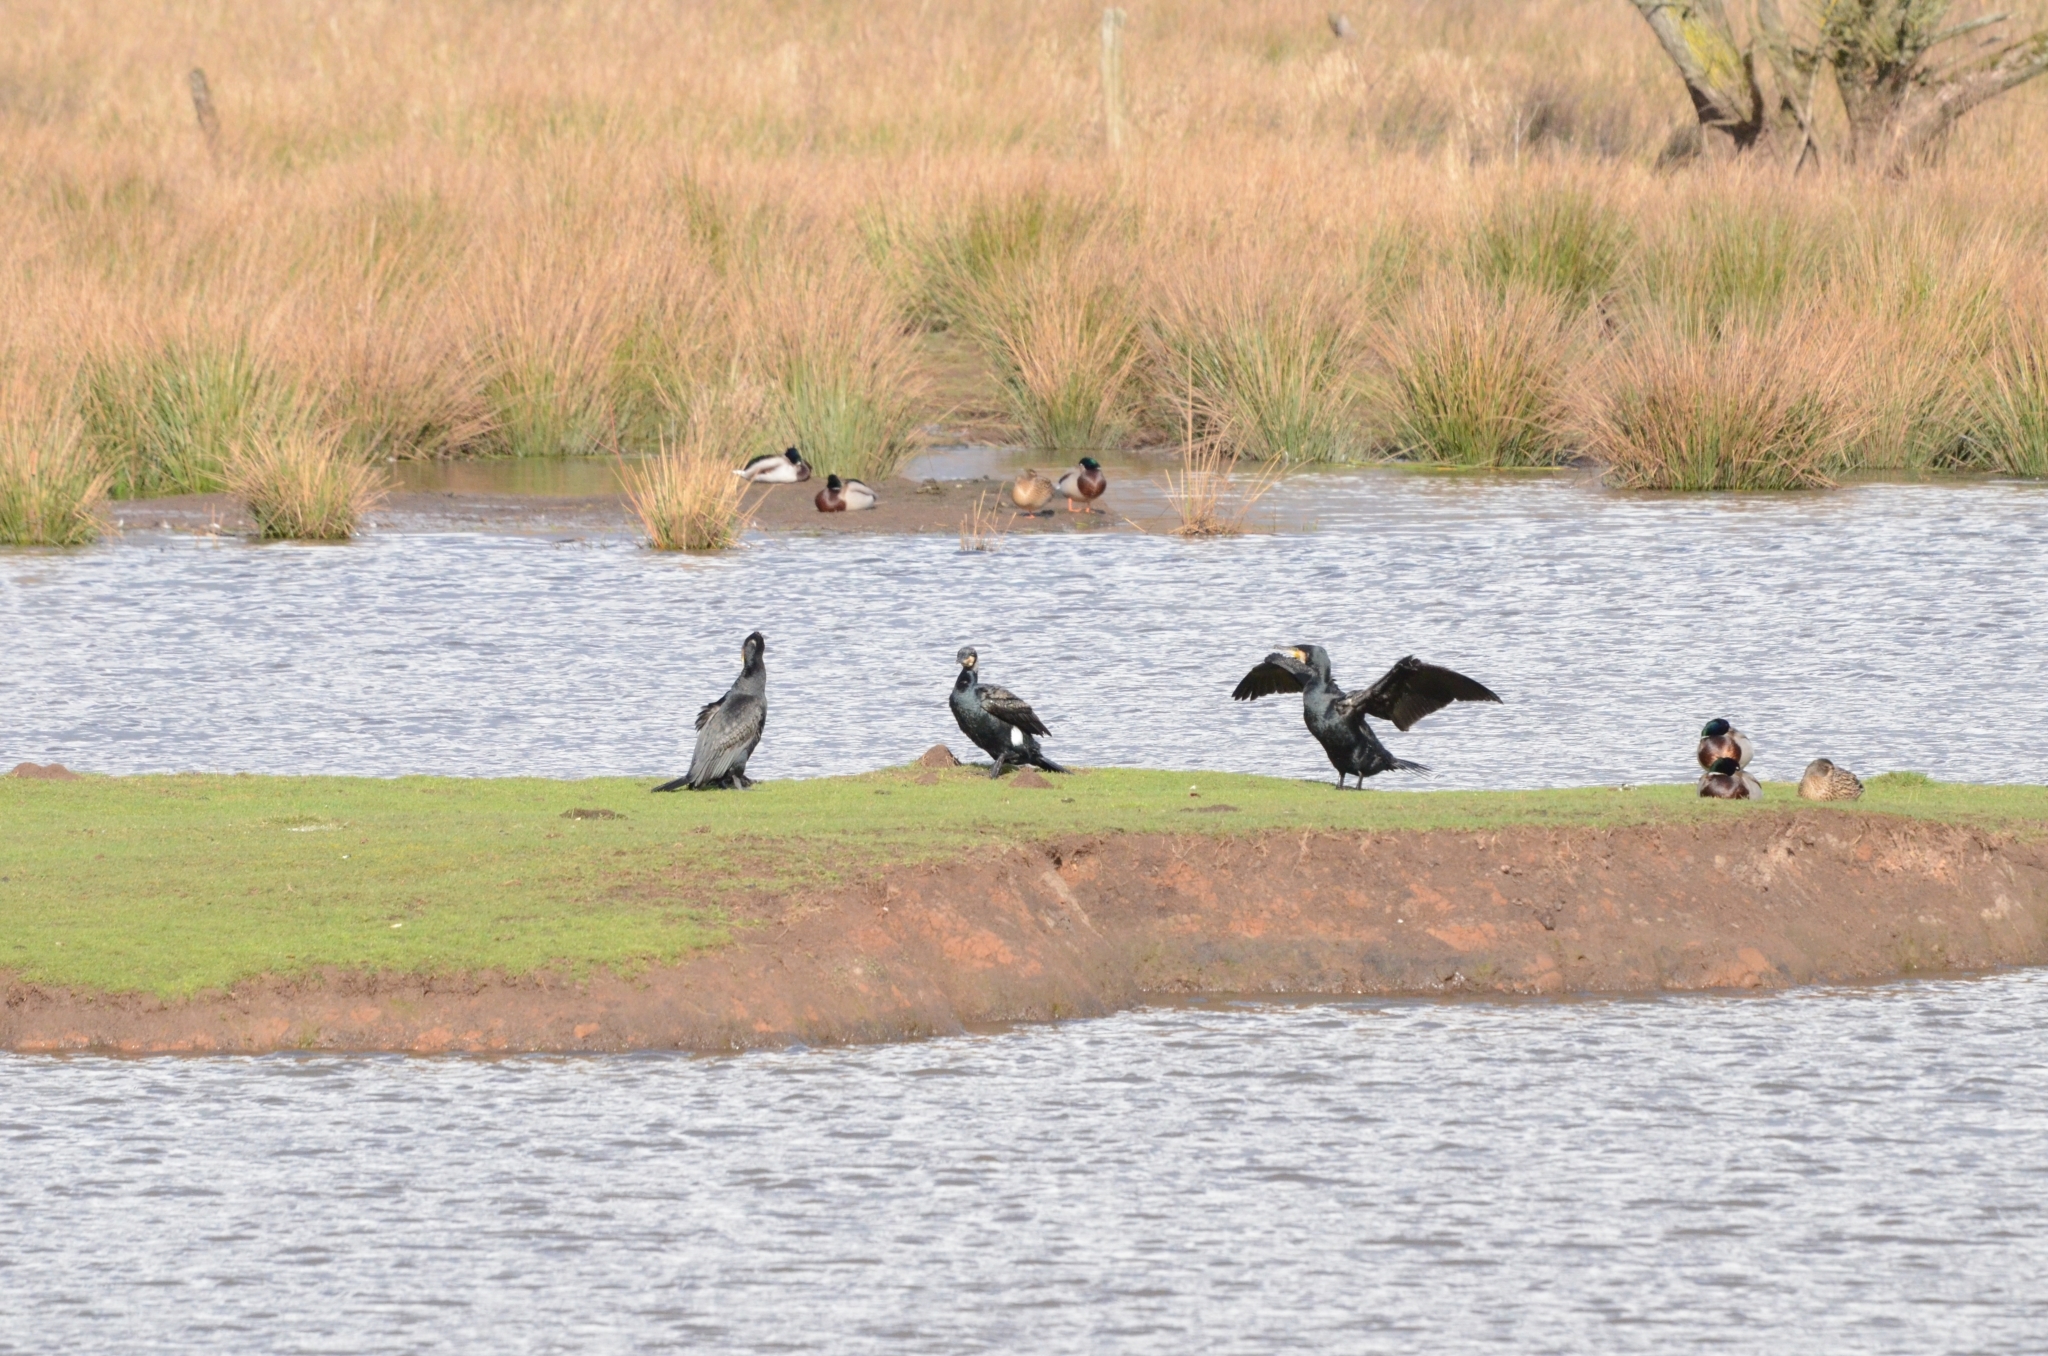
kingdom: Animalia
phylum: Chordata
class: Aves
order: Suliformes
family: Phalacrocoracidae
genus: Phalacrocorax
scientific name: Phalacrocorax carbo
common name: Great cormorant
